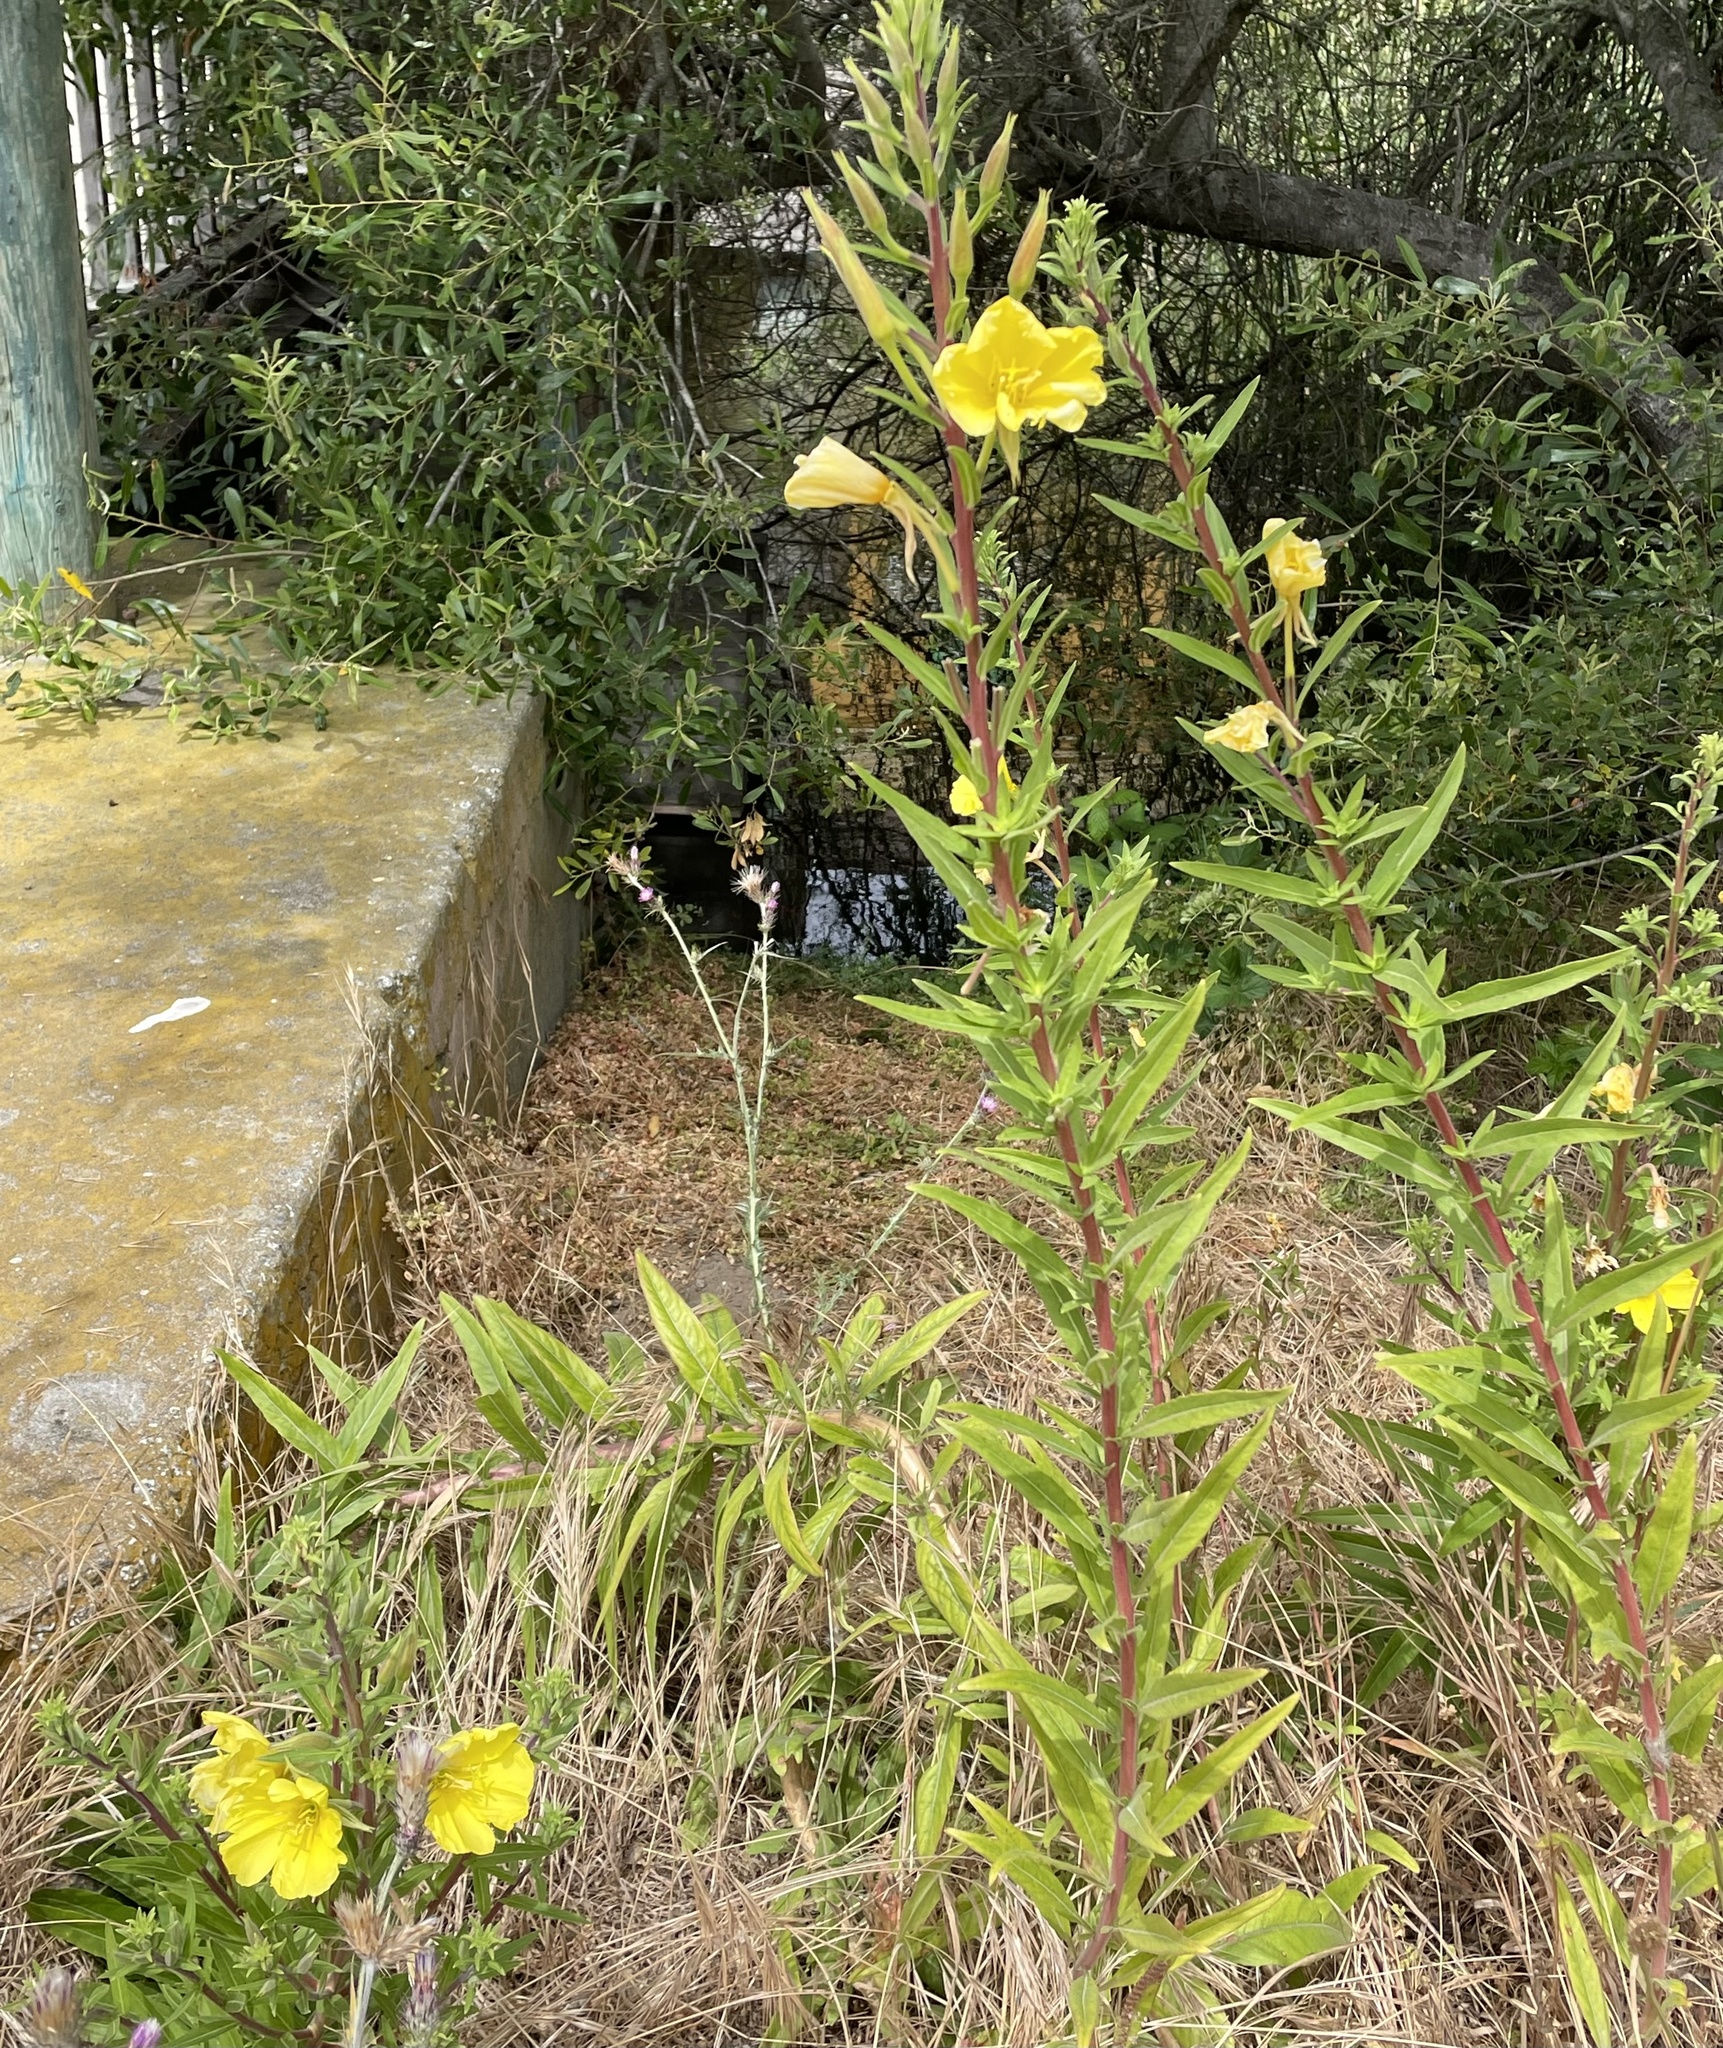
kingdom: Plantae
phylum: Tracheophyta
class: Magnoliopsida
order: Myrtales
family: Onagraceae
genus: Oenothera
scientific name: Oenothera elata
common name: Hooker's evening-primrose
